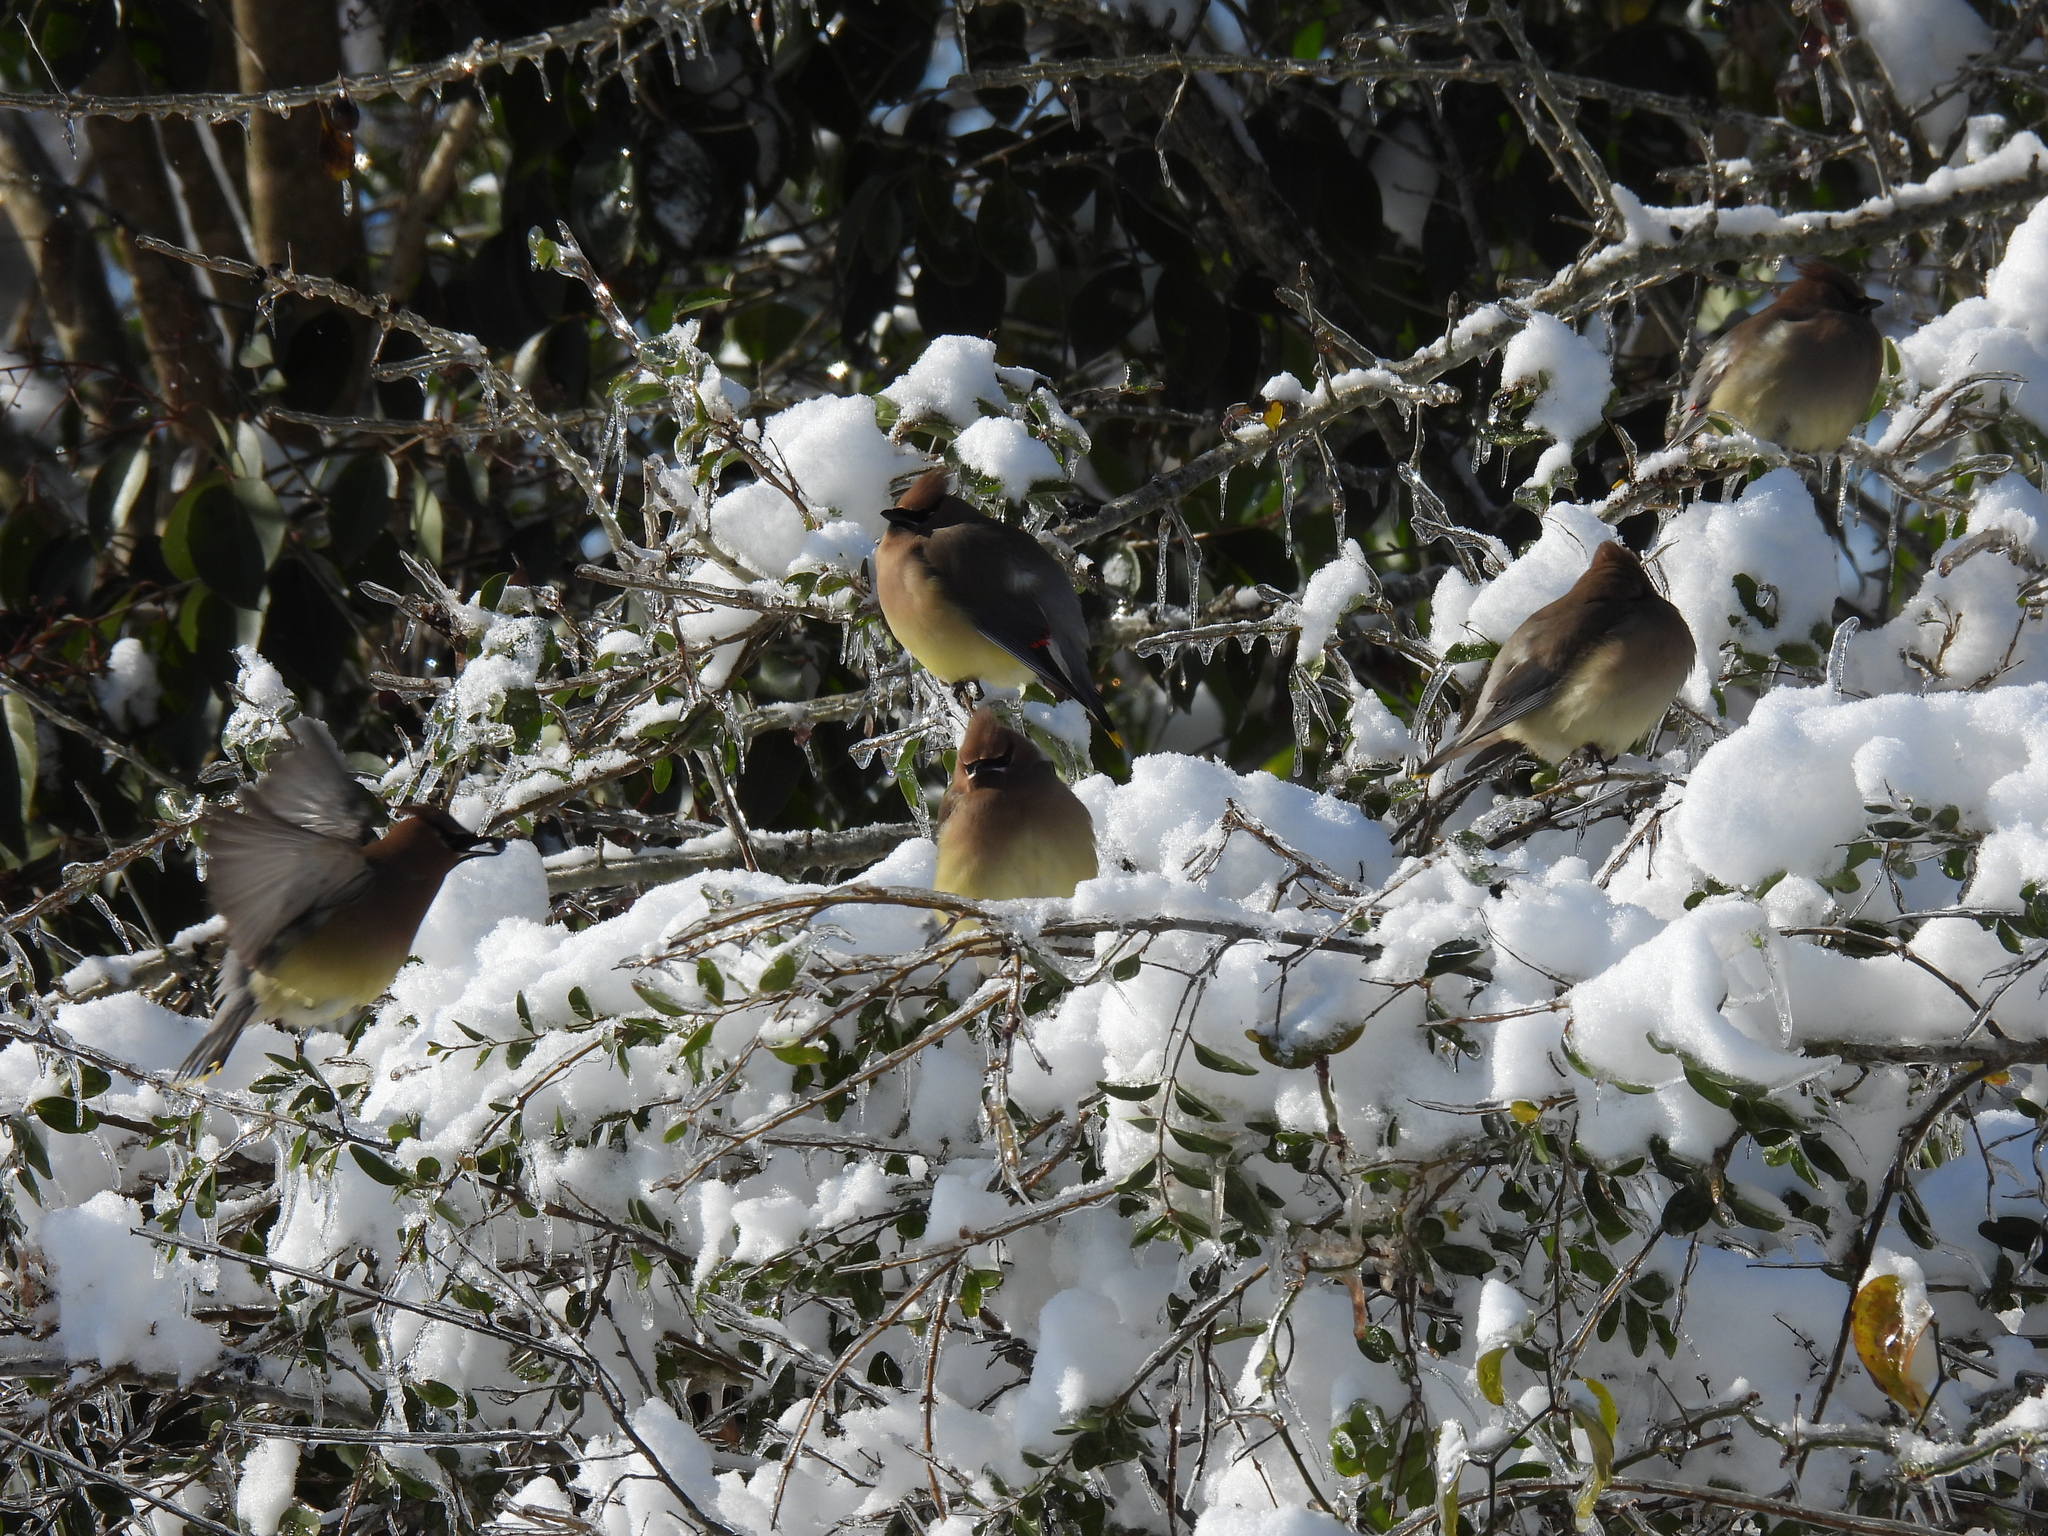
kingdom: Animalia
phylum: Chordata
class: Aves
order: Passeriformes
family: Bombycillidae
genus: Bombycilla
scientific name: Bombycilla cedrorum
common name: Cedar waxwing
